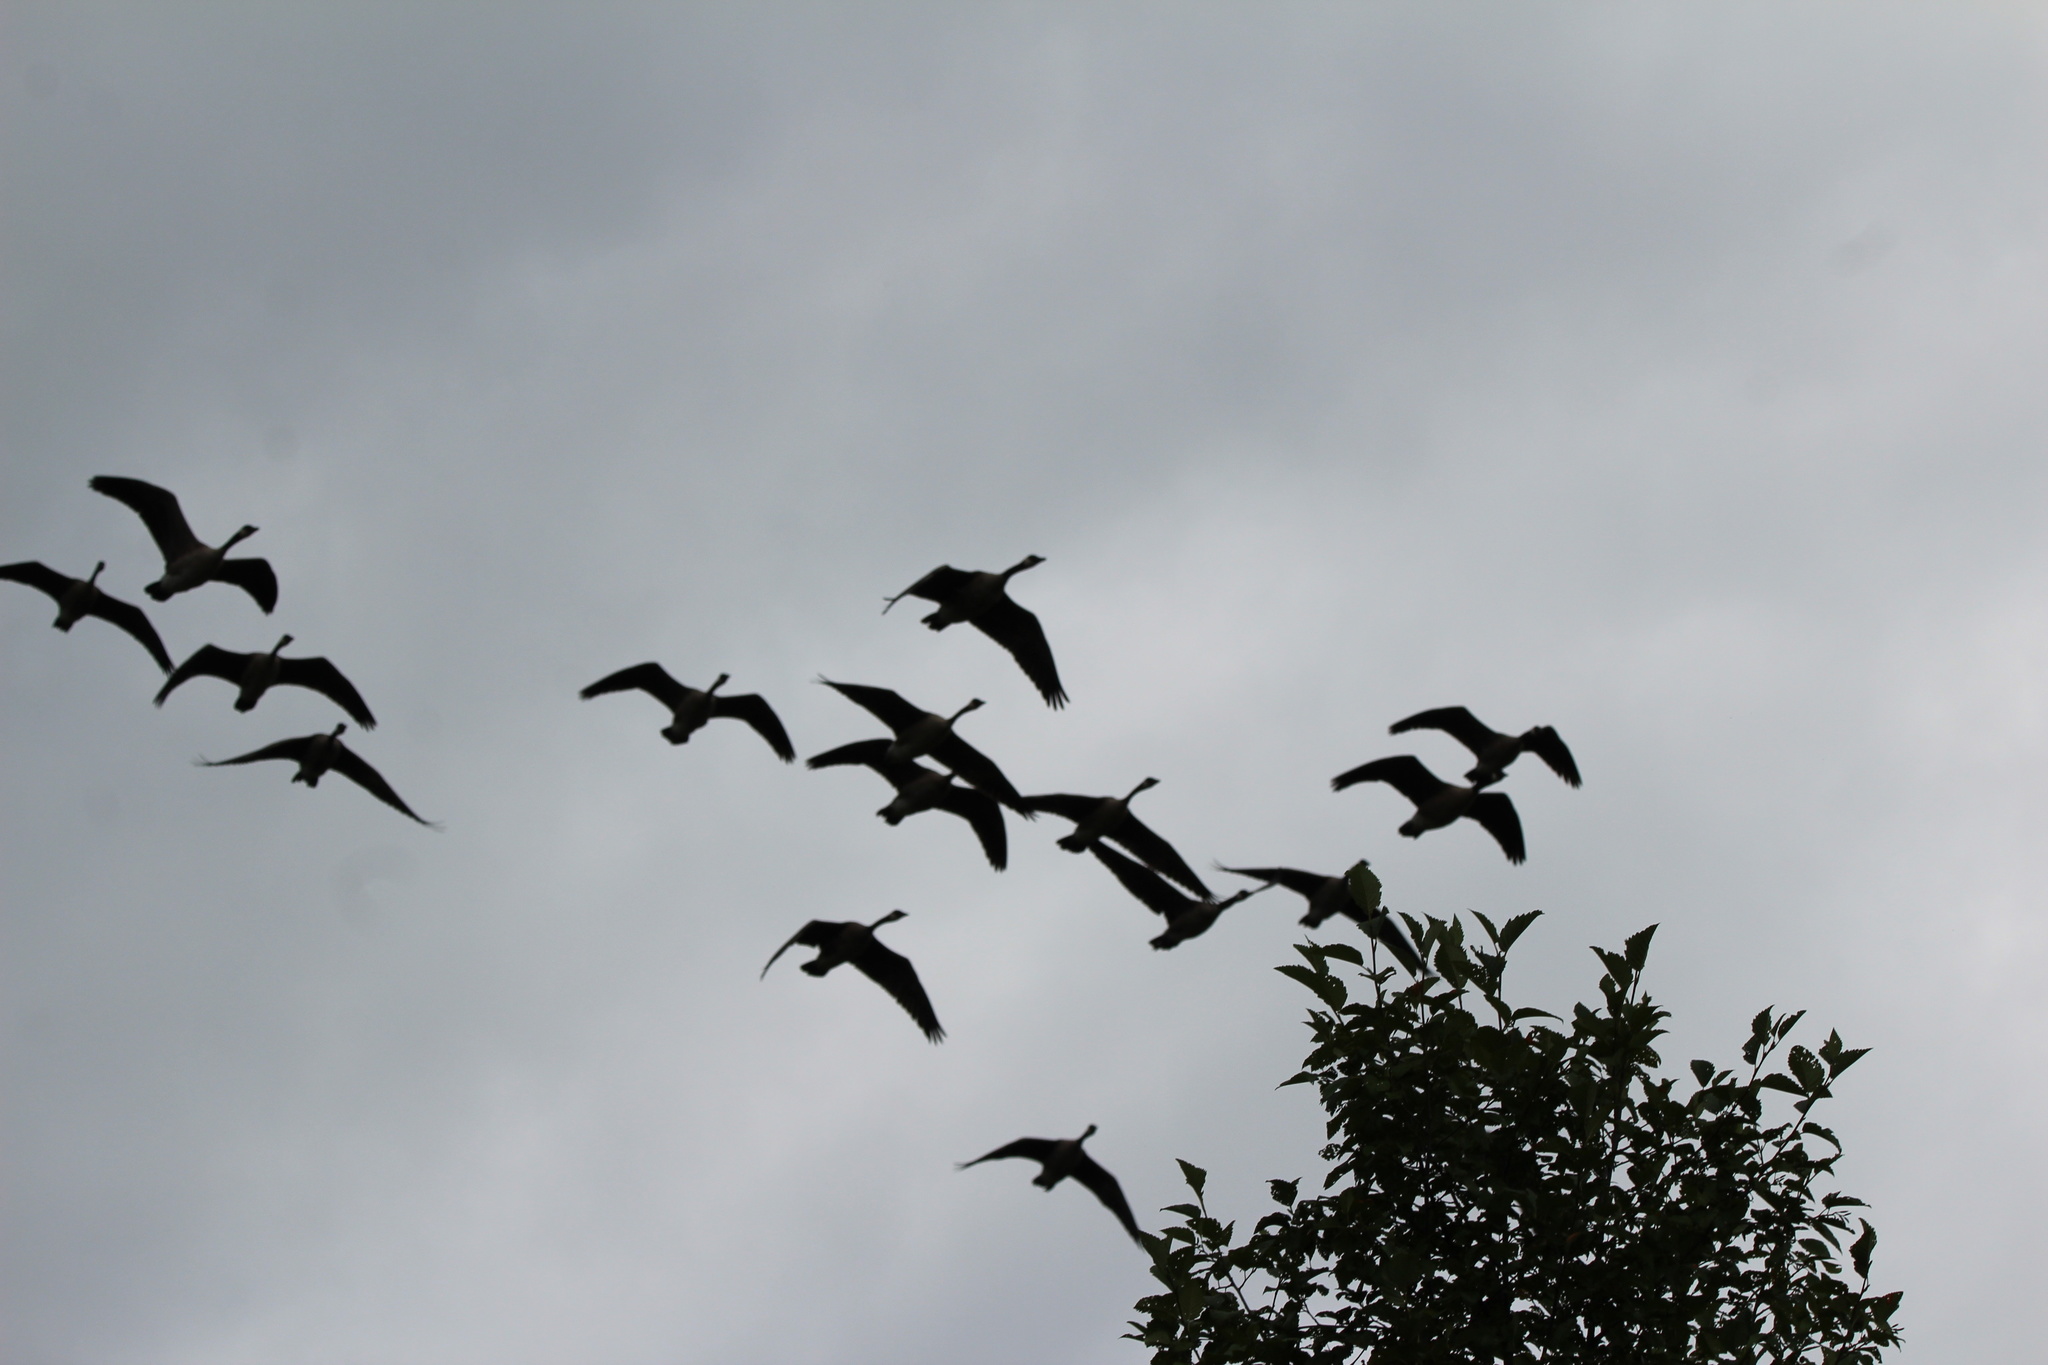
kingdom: Animalia
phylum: Chordata
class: Aves
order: Anseriformes
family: Anatidae
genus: Branta
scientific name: Branta canadensis
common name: Canada goose
